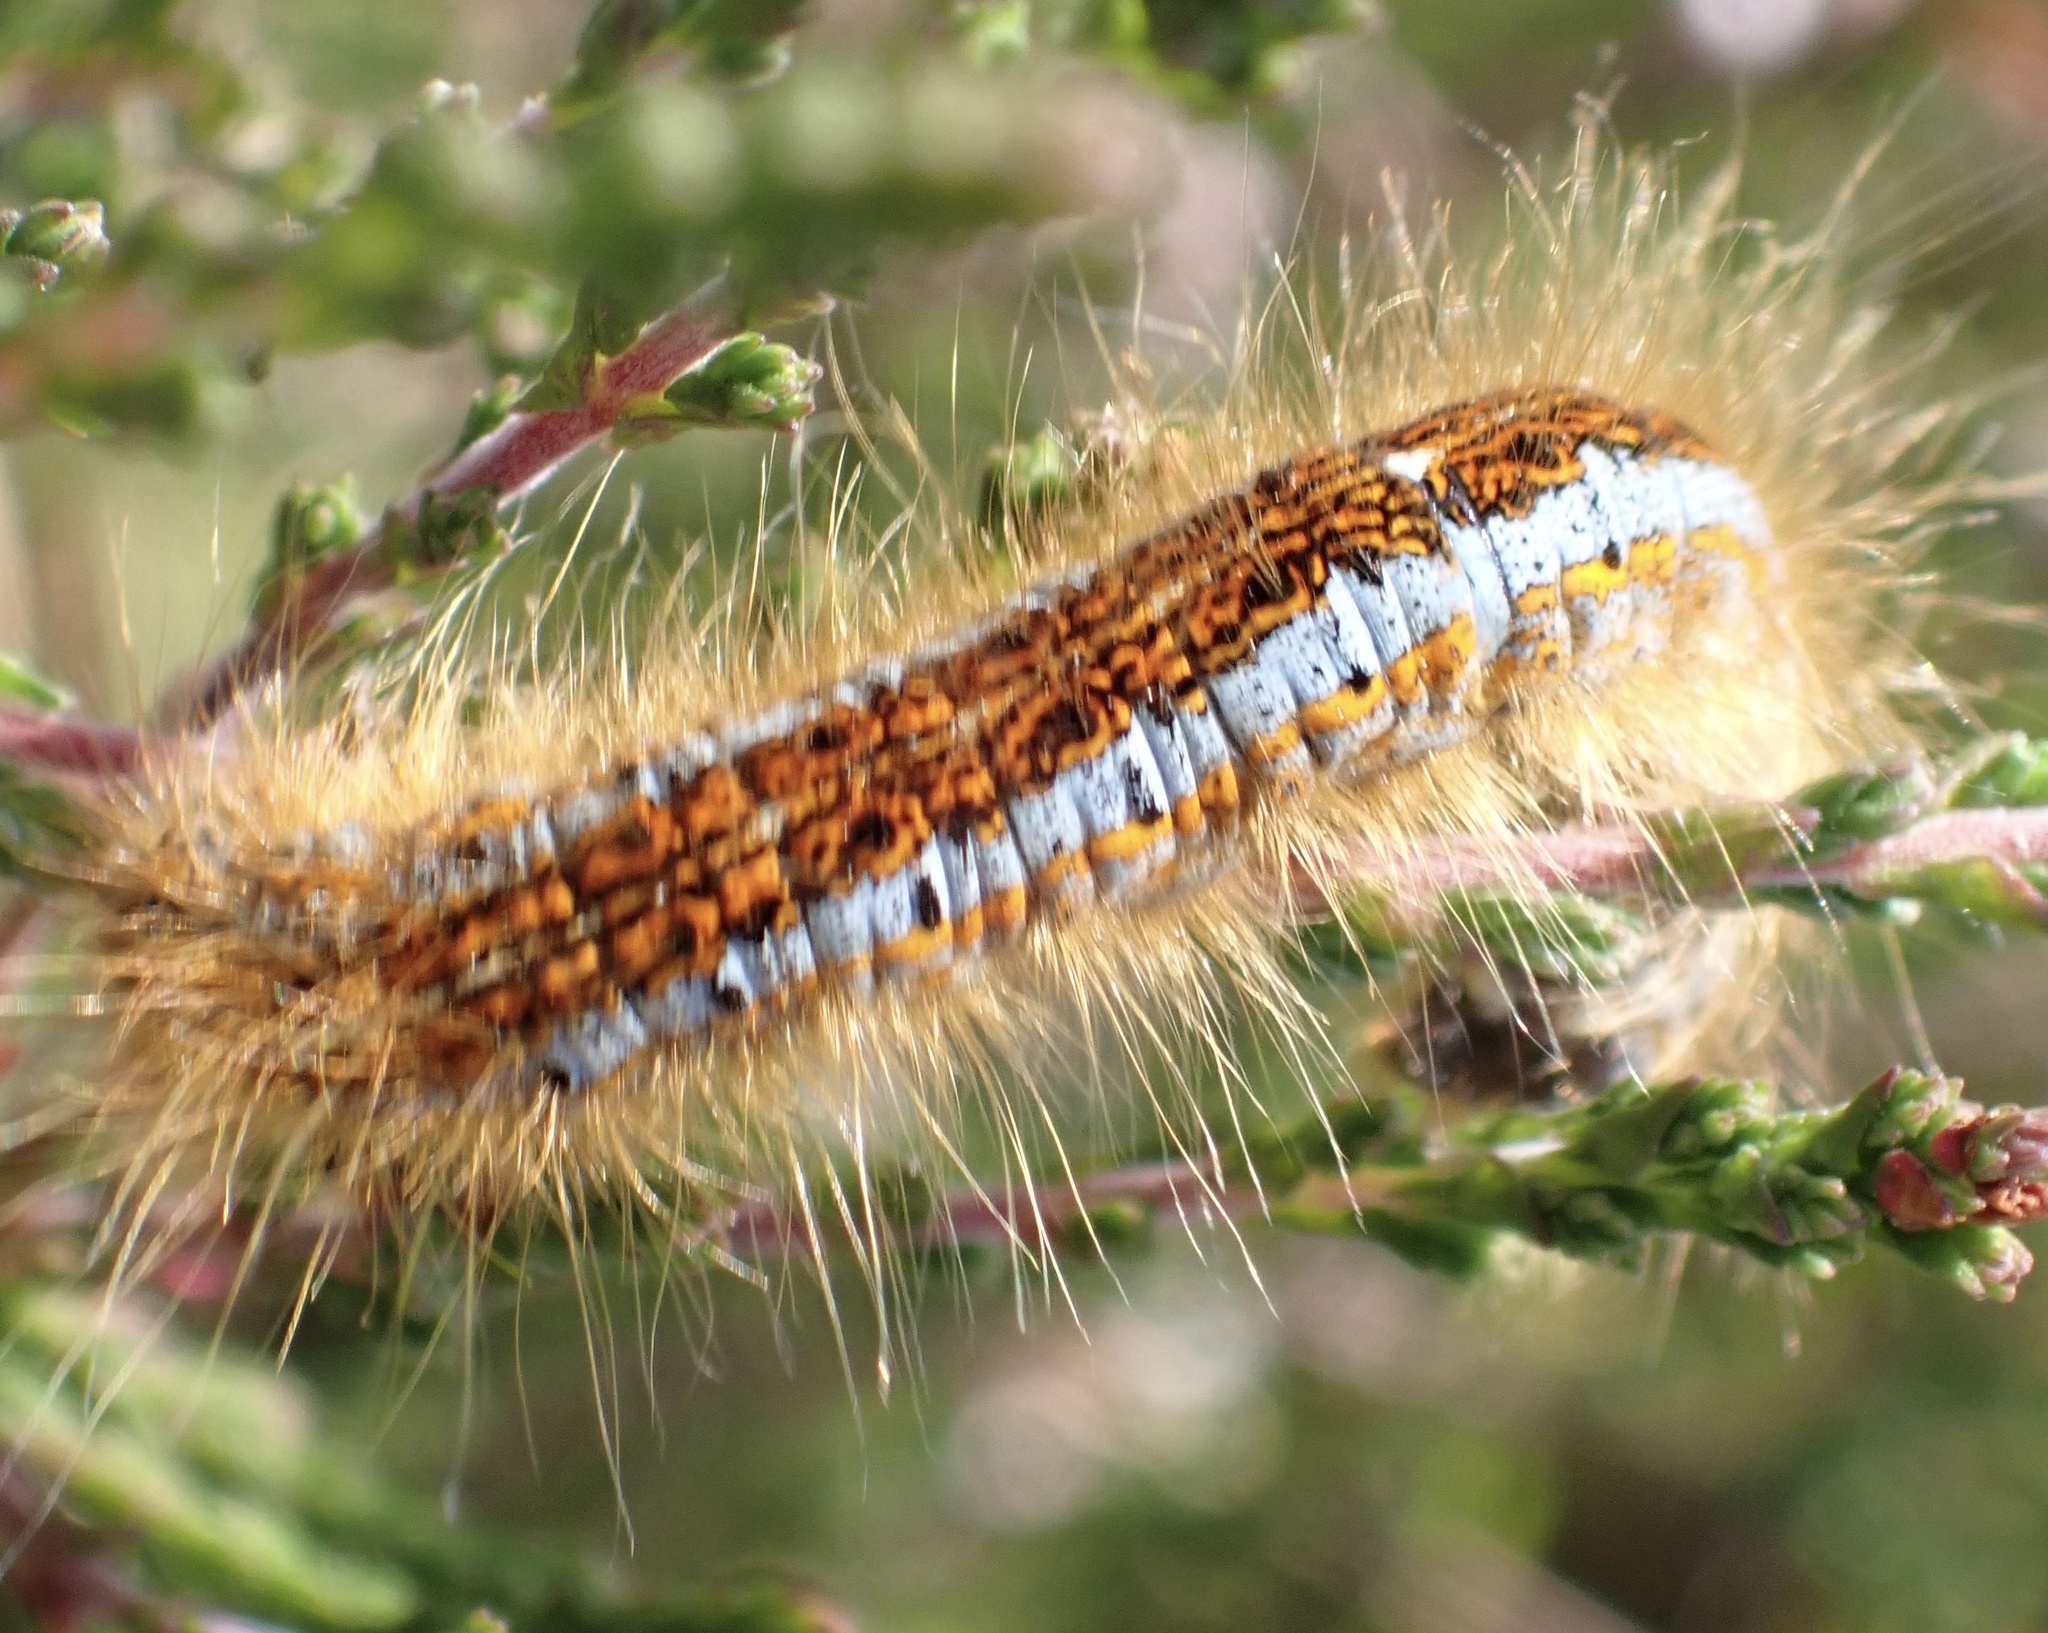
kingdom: Animalia
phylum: Arthropoda
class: Insecta
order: Lepidoptera
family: Lasiocampidae
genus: Malacosoma
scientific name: Malacosoma castrense
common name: Ground lackey
